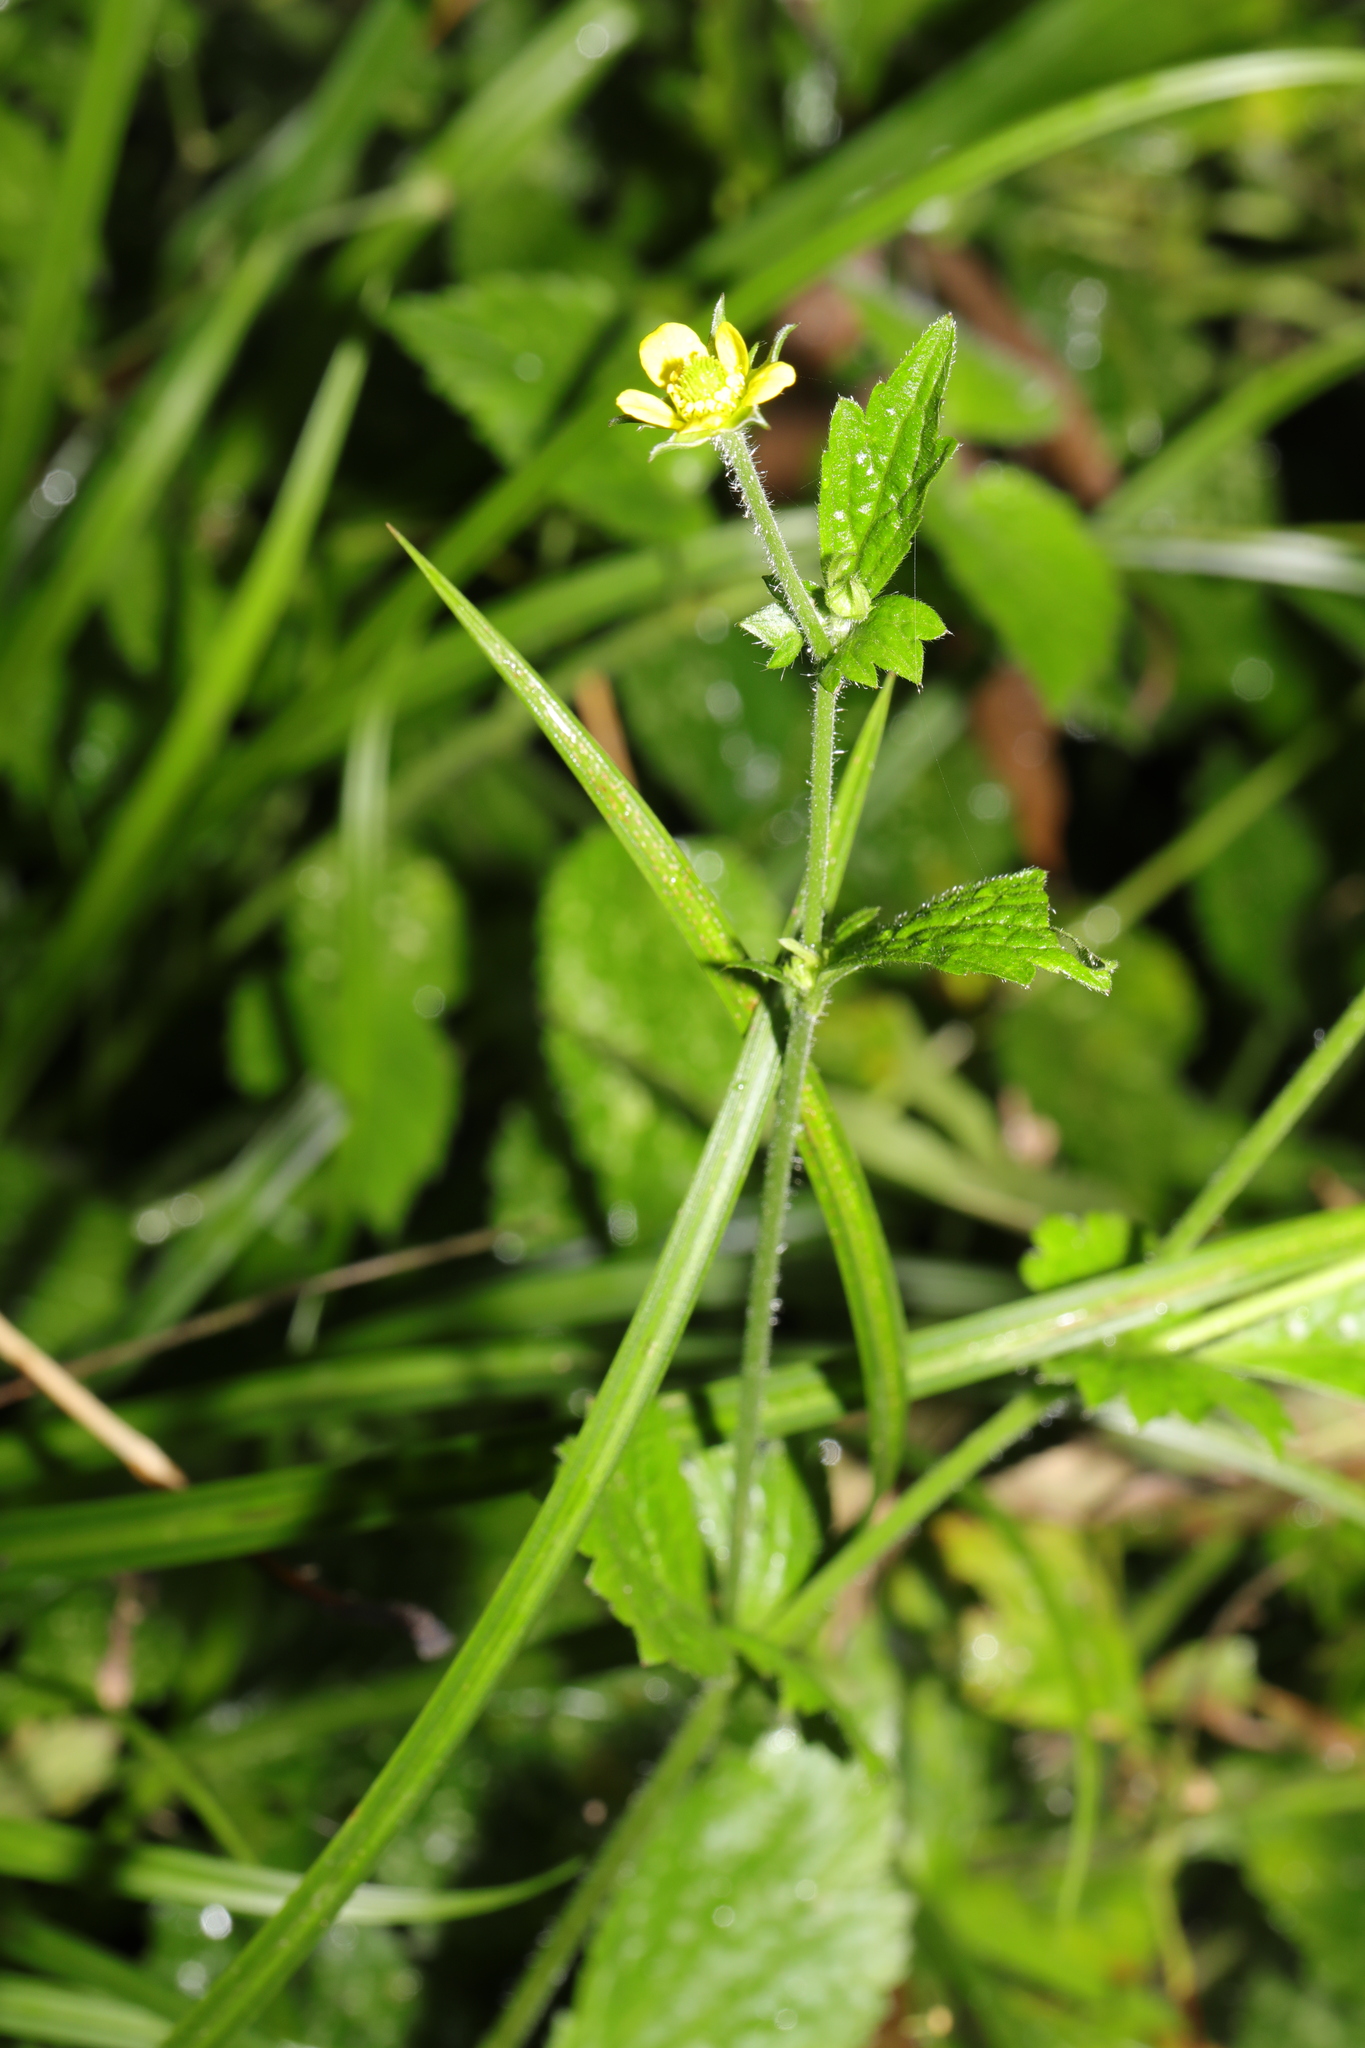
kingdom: Plantae
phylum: Tracheophyta
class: Magnoliopsida
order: Rosales
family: Rosaceae
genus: Geum
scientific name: Geum urbanum
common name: Wood avens
